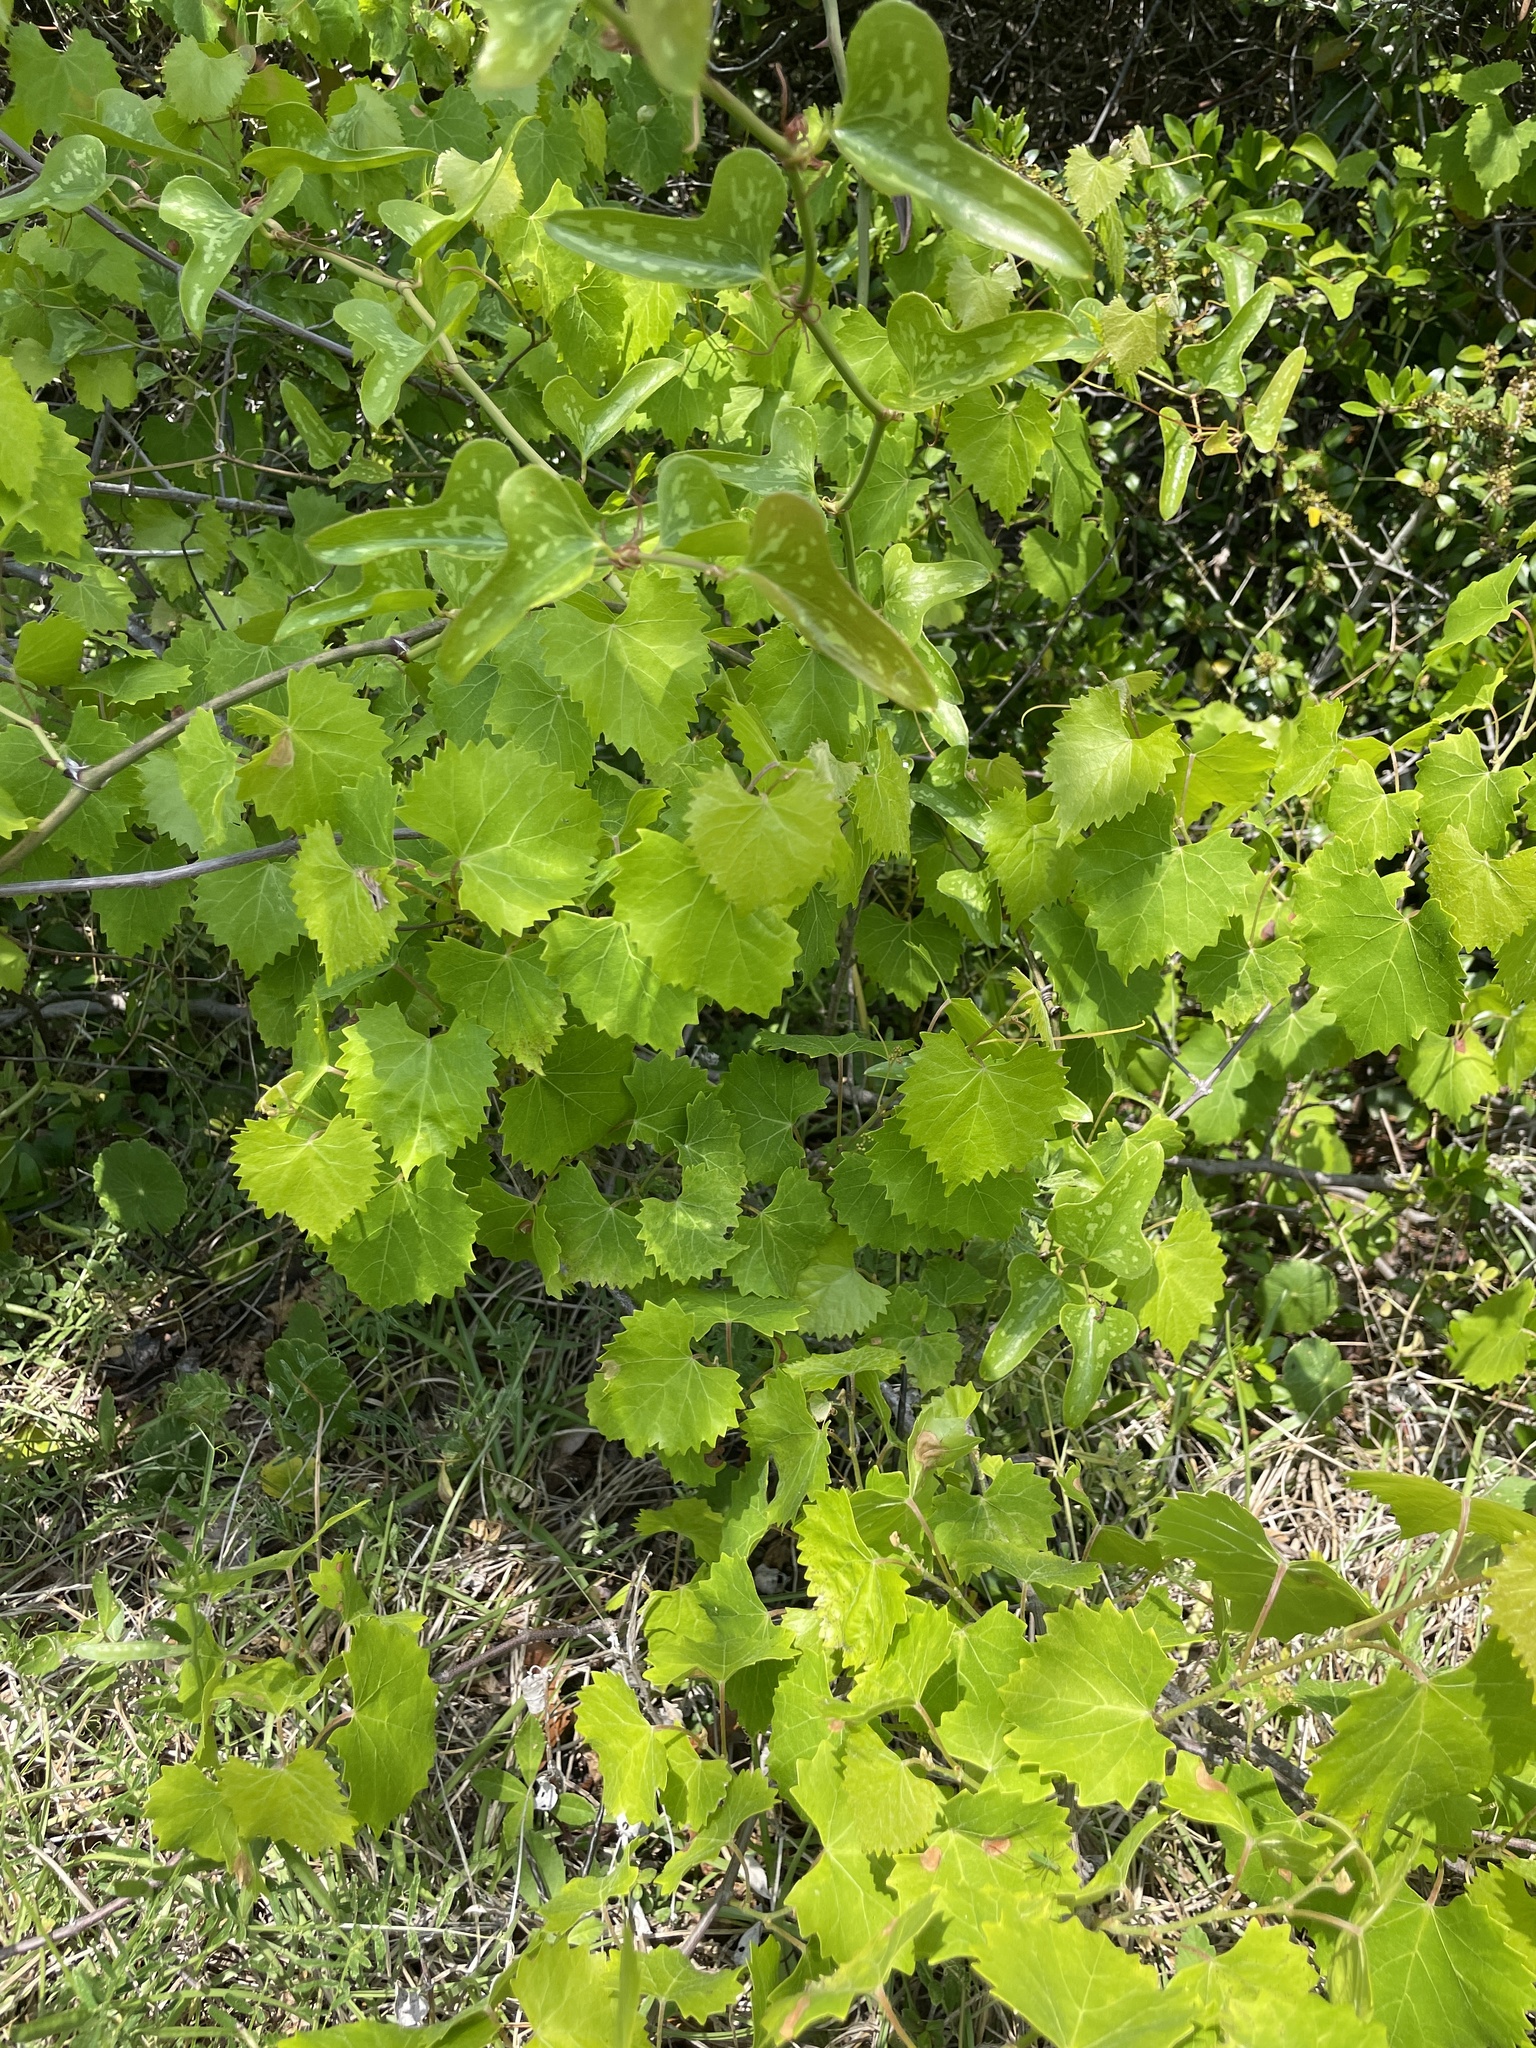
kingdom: Plantae
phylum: Tracheophyta
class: Magnoliopsida
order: Vitales
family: Vitaceae
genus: Vitis
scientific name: Vitis rotundifolia
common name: Muscadine grape
